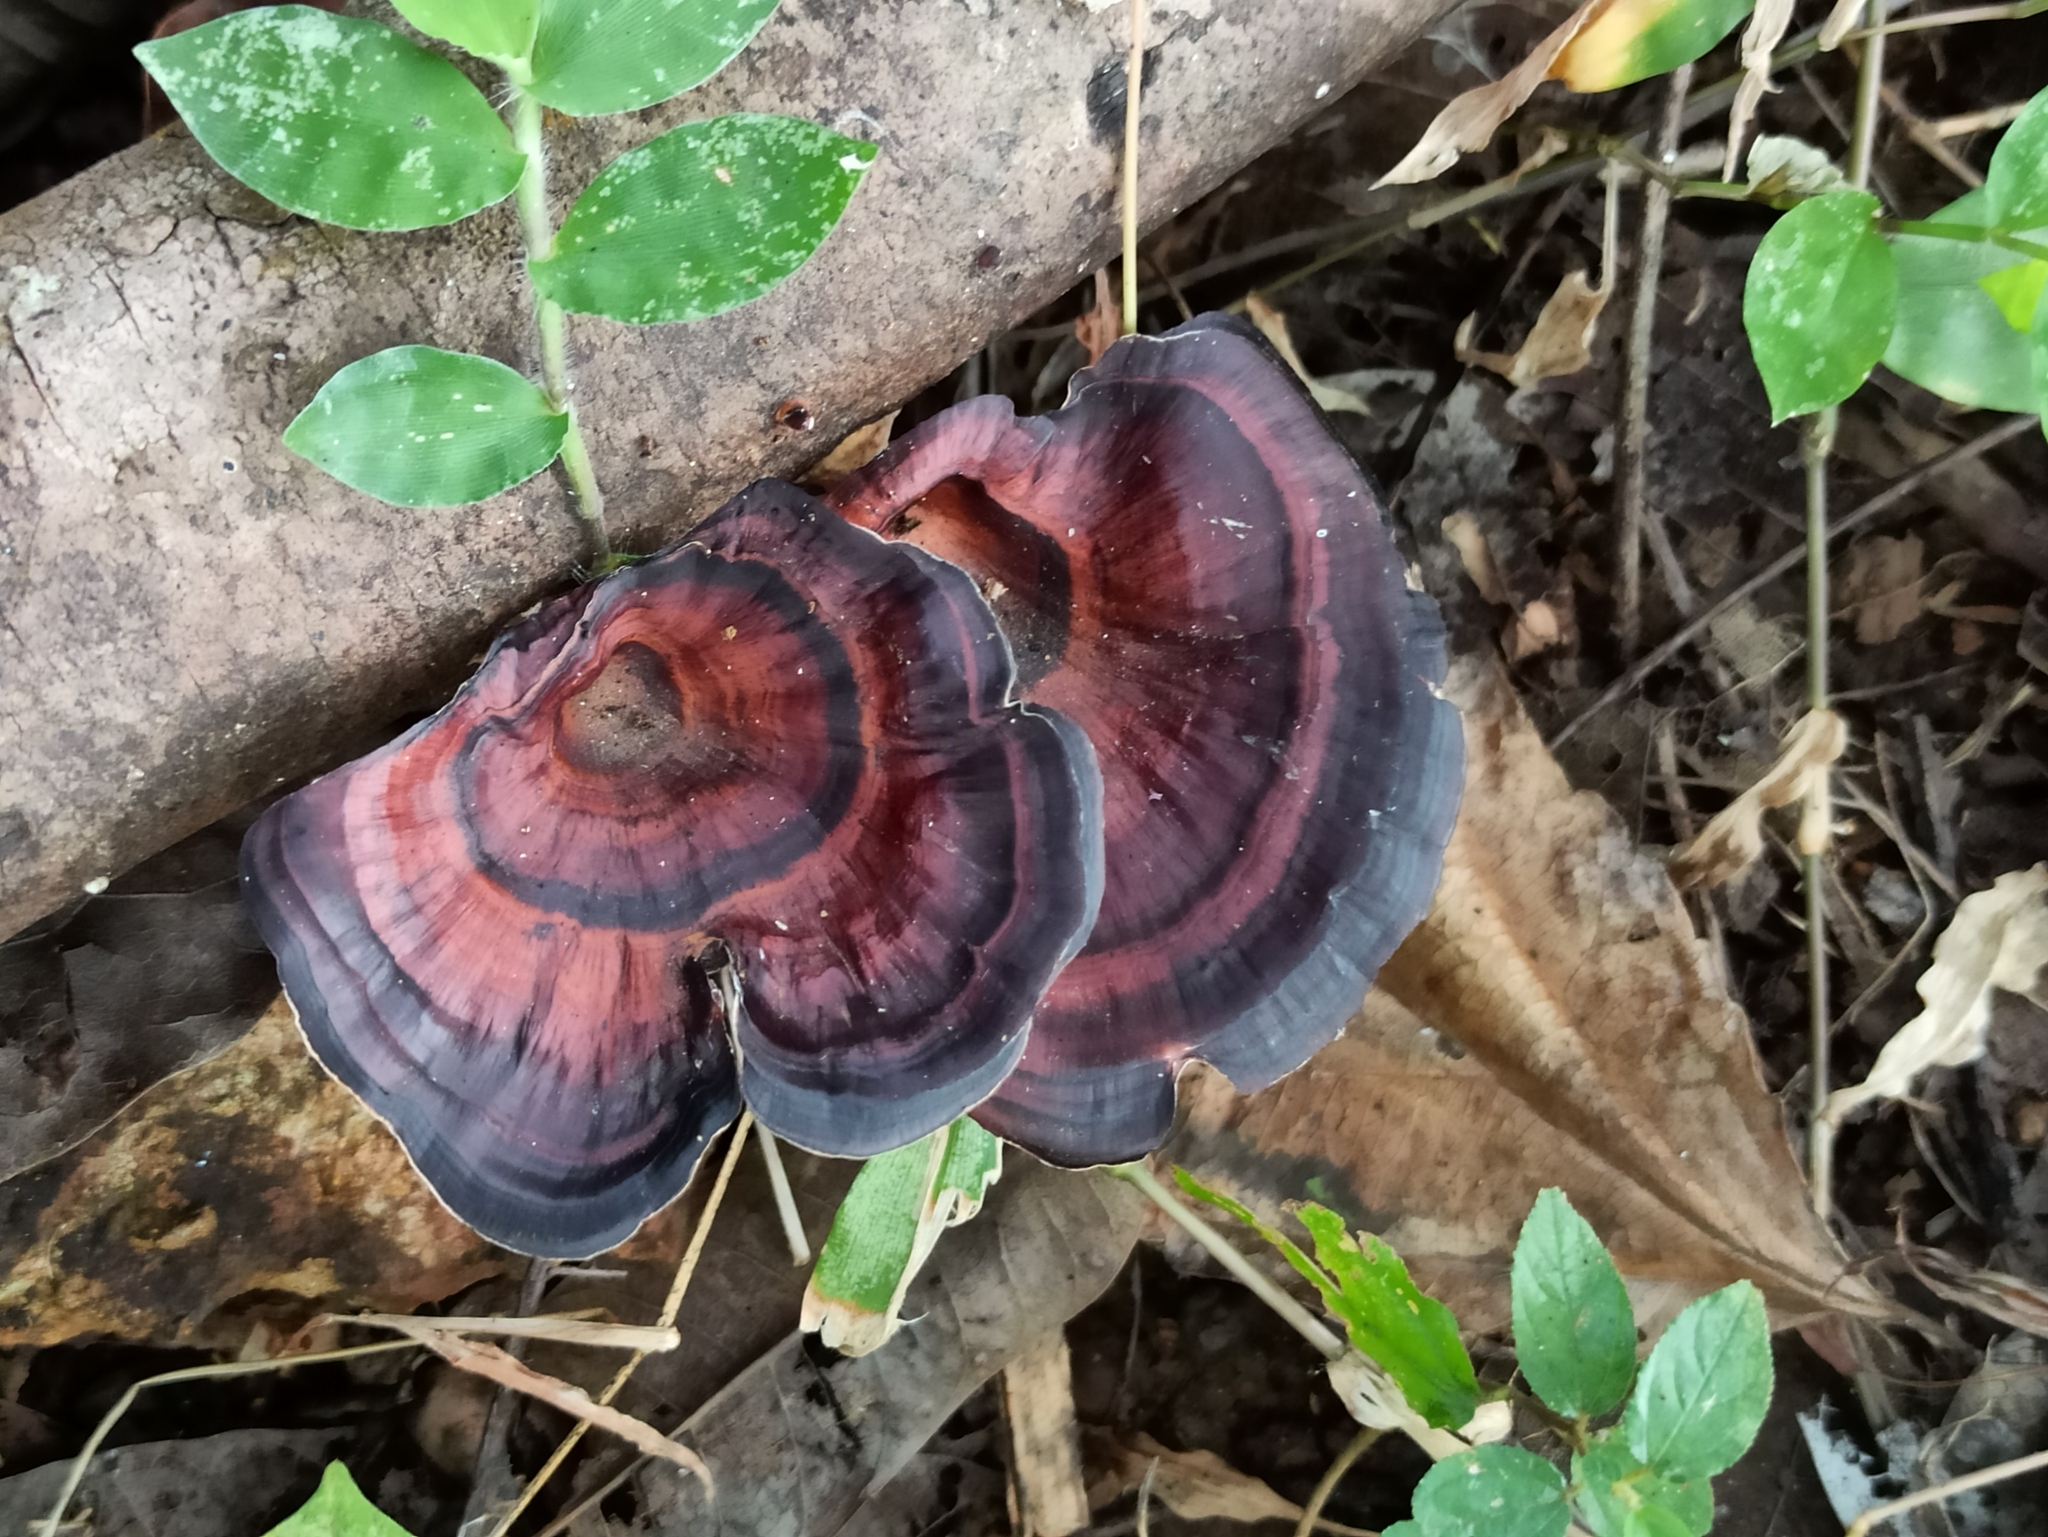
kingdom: Fungi
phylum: Basidiomycota
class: Agaricomycetes
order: Polyporales
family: Polyporaceae
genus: Microporus
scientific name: Microporus xanthopus
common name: Yellow-stemmed micropore
